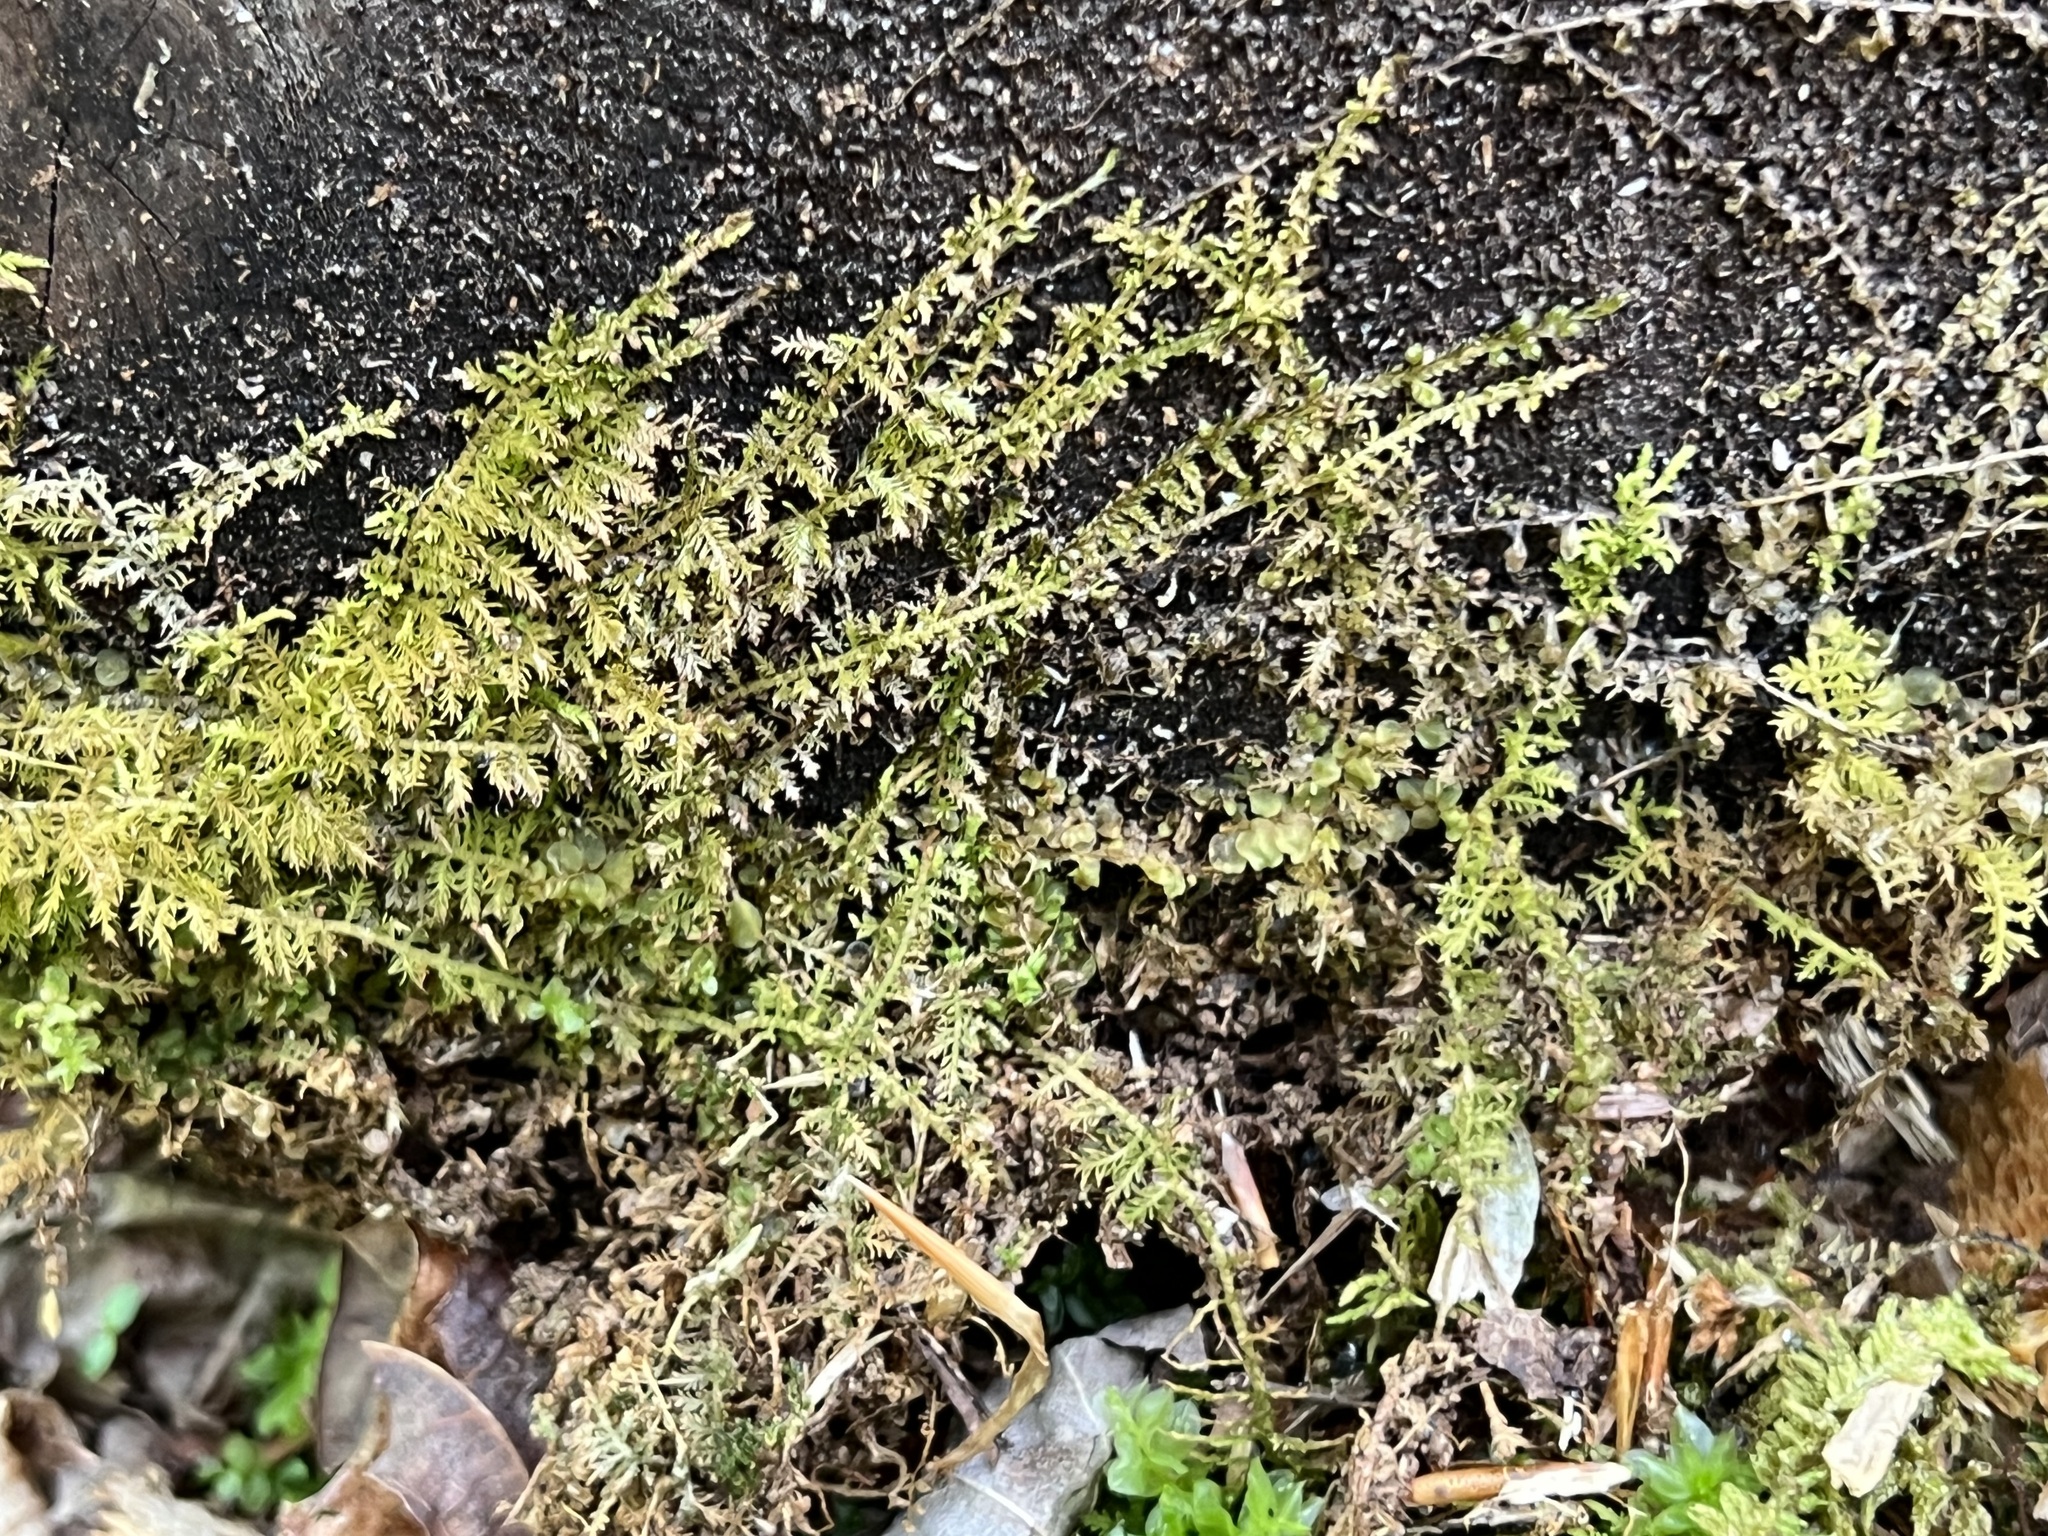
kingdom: Plantae
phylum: Bryophyta
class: Bryopsida
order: Hypnales
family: Thuidiaceae
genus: Thuidium
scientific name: Thuidium delicatulum
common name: Delicate fern moss
